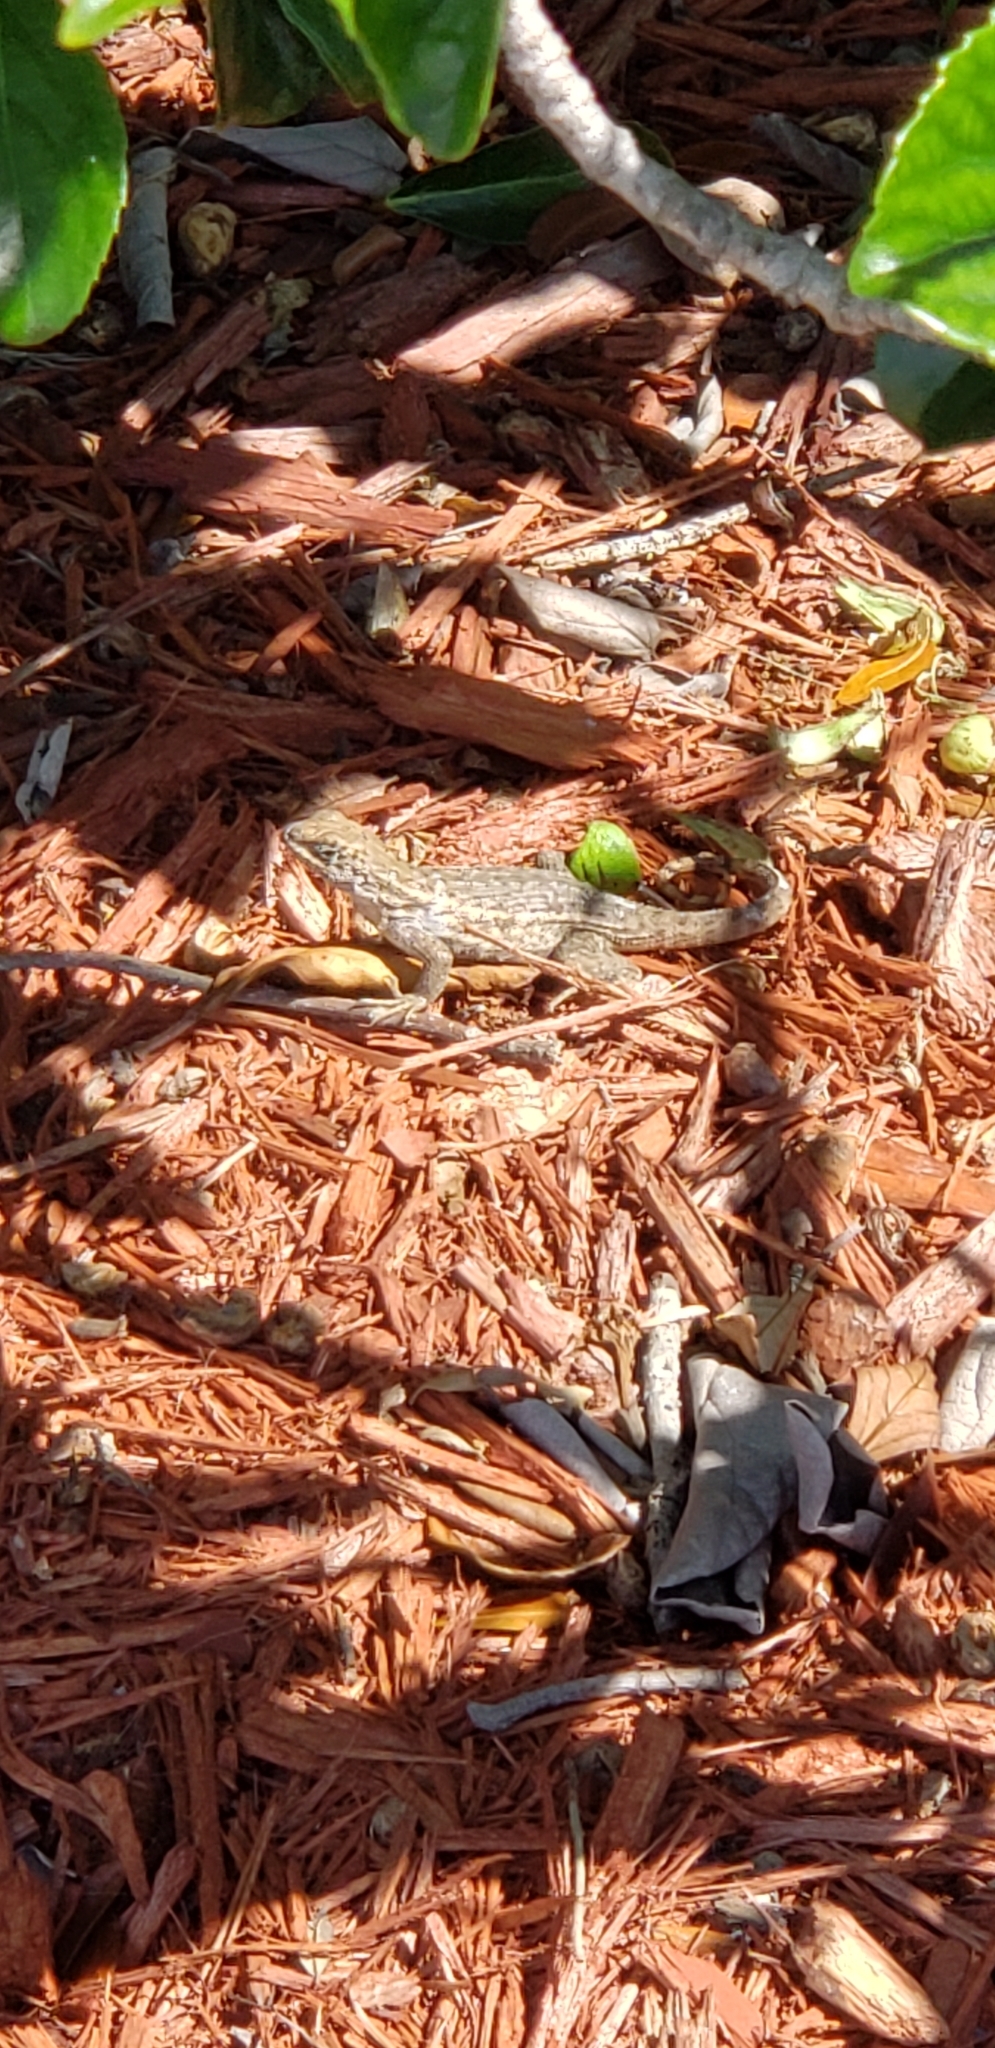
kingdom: Animalia
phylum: Chordata
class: Squamata
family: Leiocephalidae
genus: Leiocephalus
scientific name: Leiocephalus carinatus
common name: Northern curly-tailed lizard
